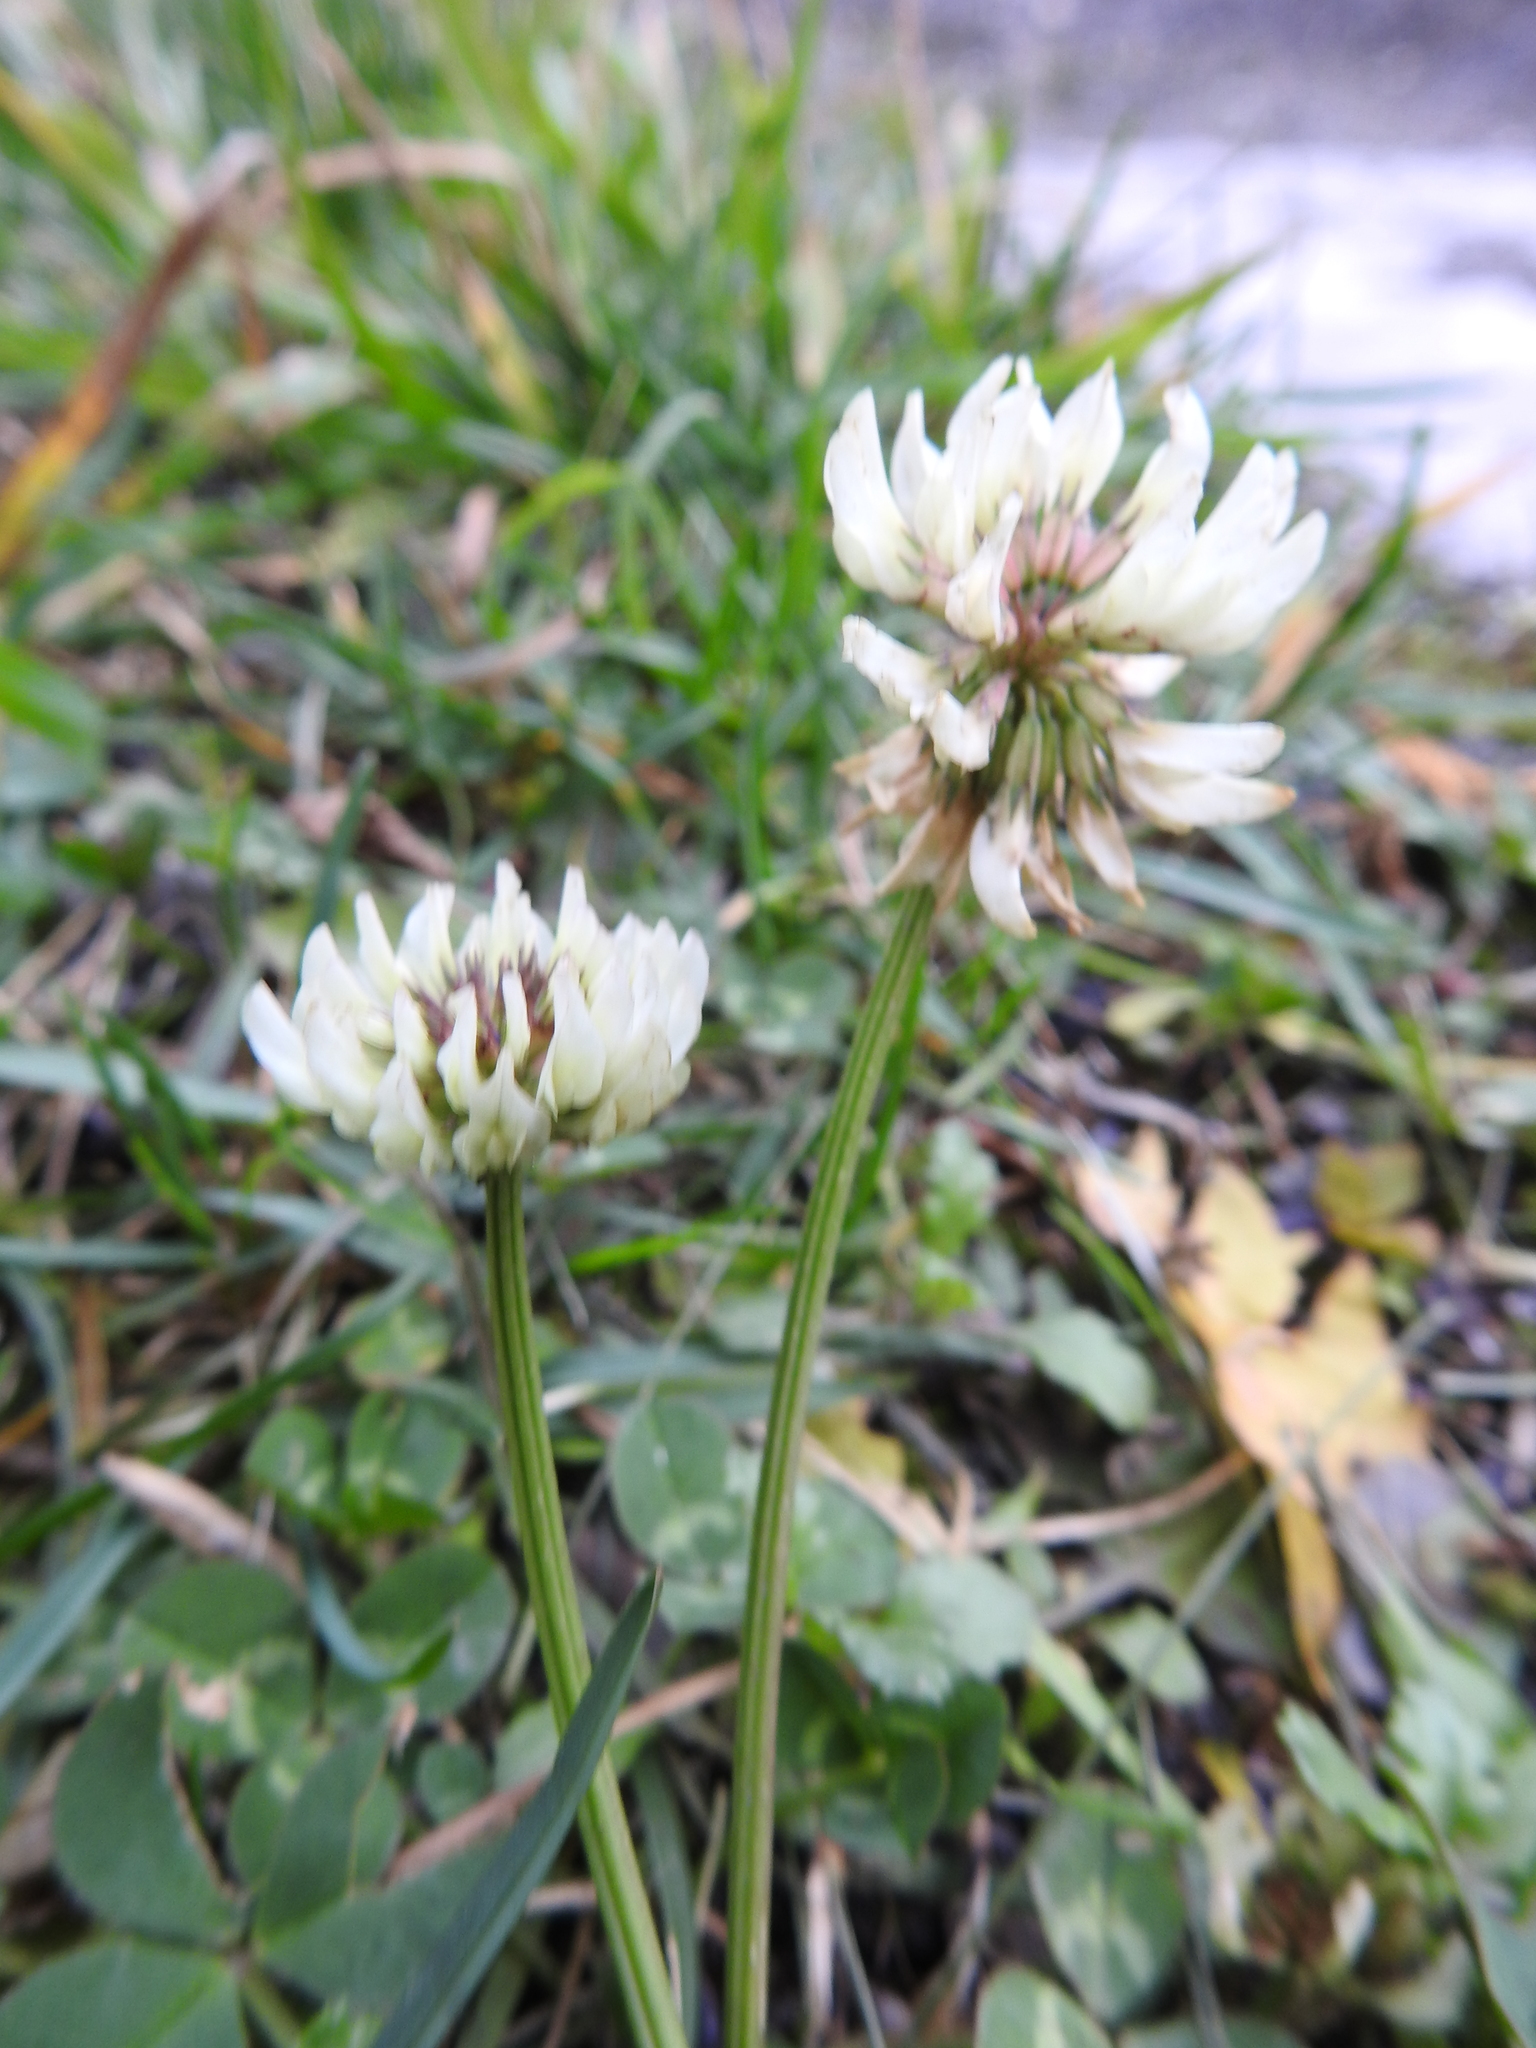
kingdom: Plantae
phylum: Tracheophyta
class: Magnoliopsida
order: Fabales
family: Fabaceae
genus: Trifolium
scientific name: Trifolium repens
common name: White clover
